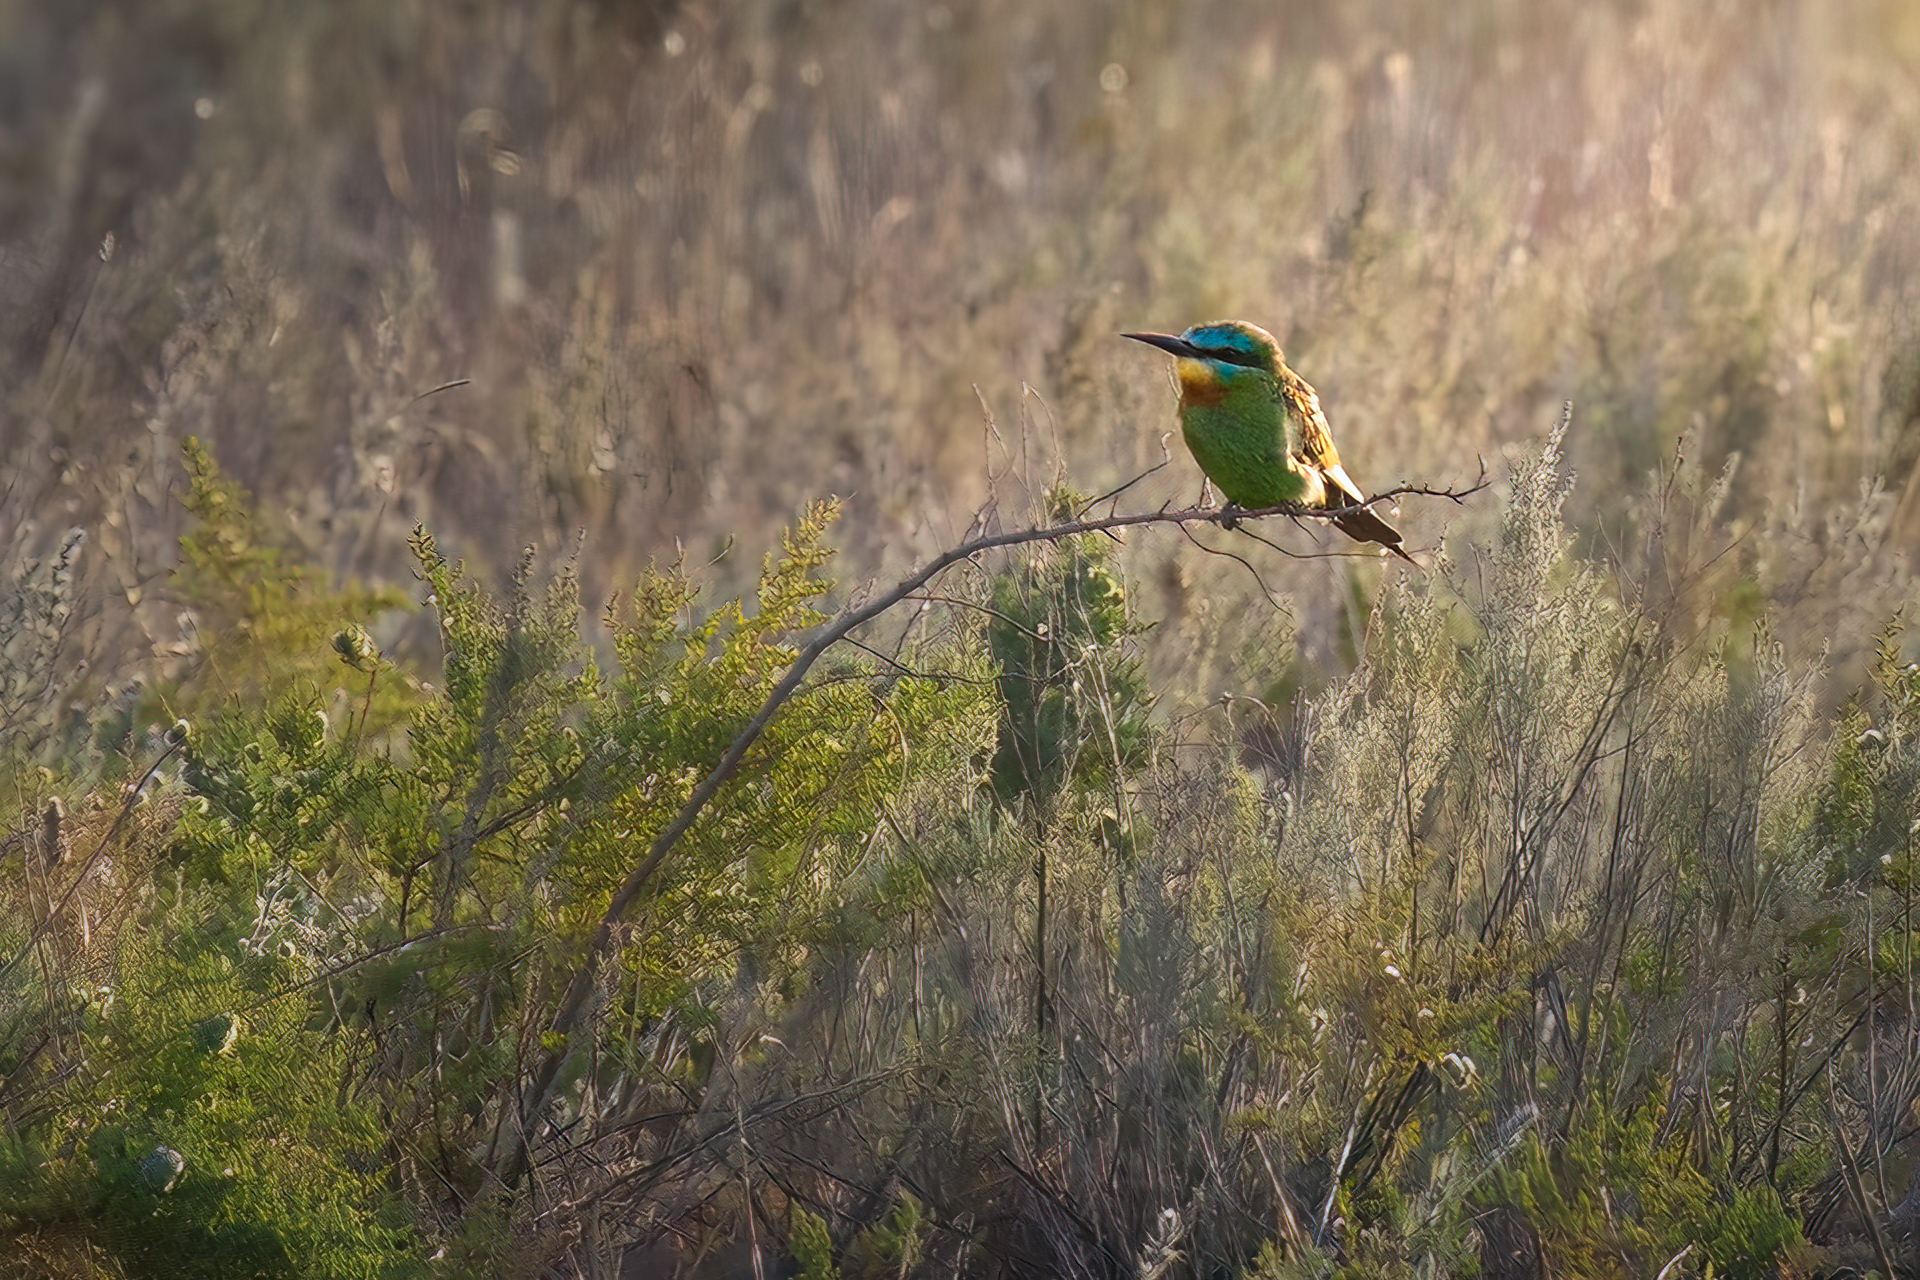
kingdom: Animalia
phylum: Chordata
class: Aves
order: Coraciiformes
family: Meropidae
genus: Merops
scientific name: Merops persicus
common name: Blue-cheeked bee-eater
